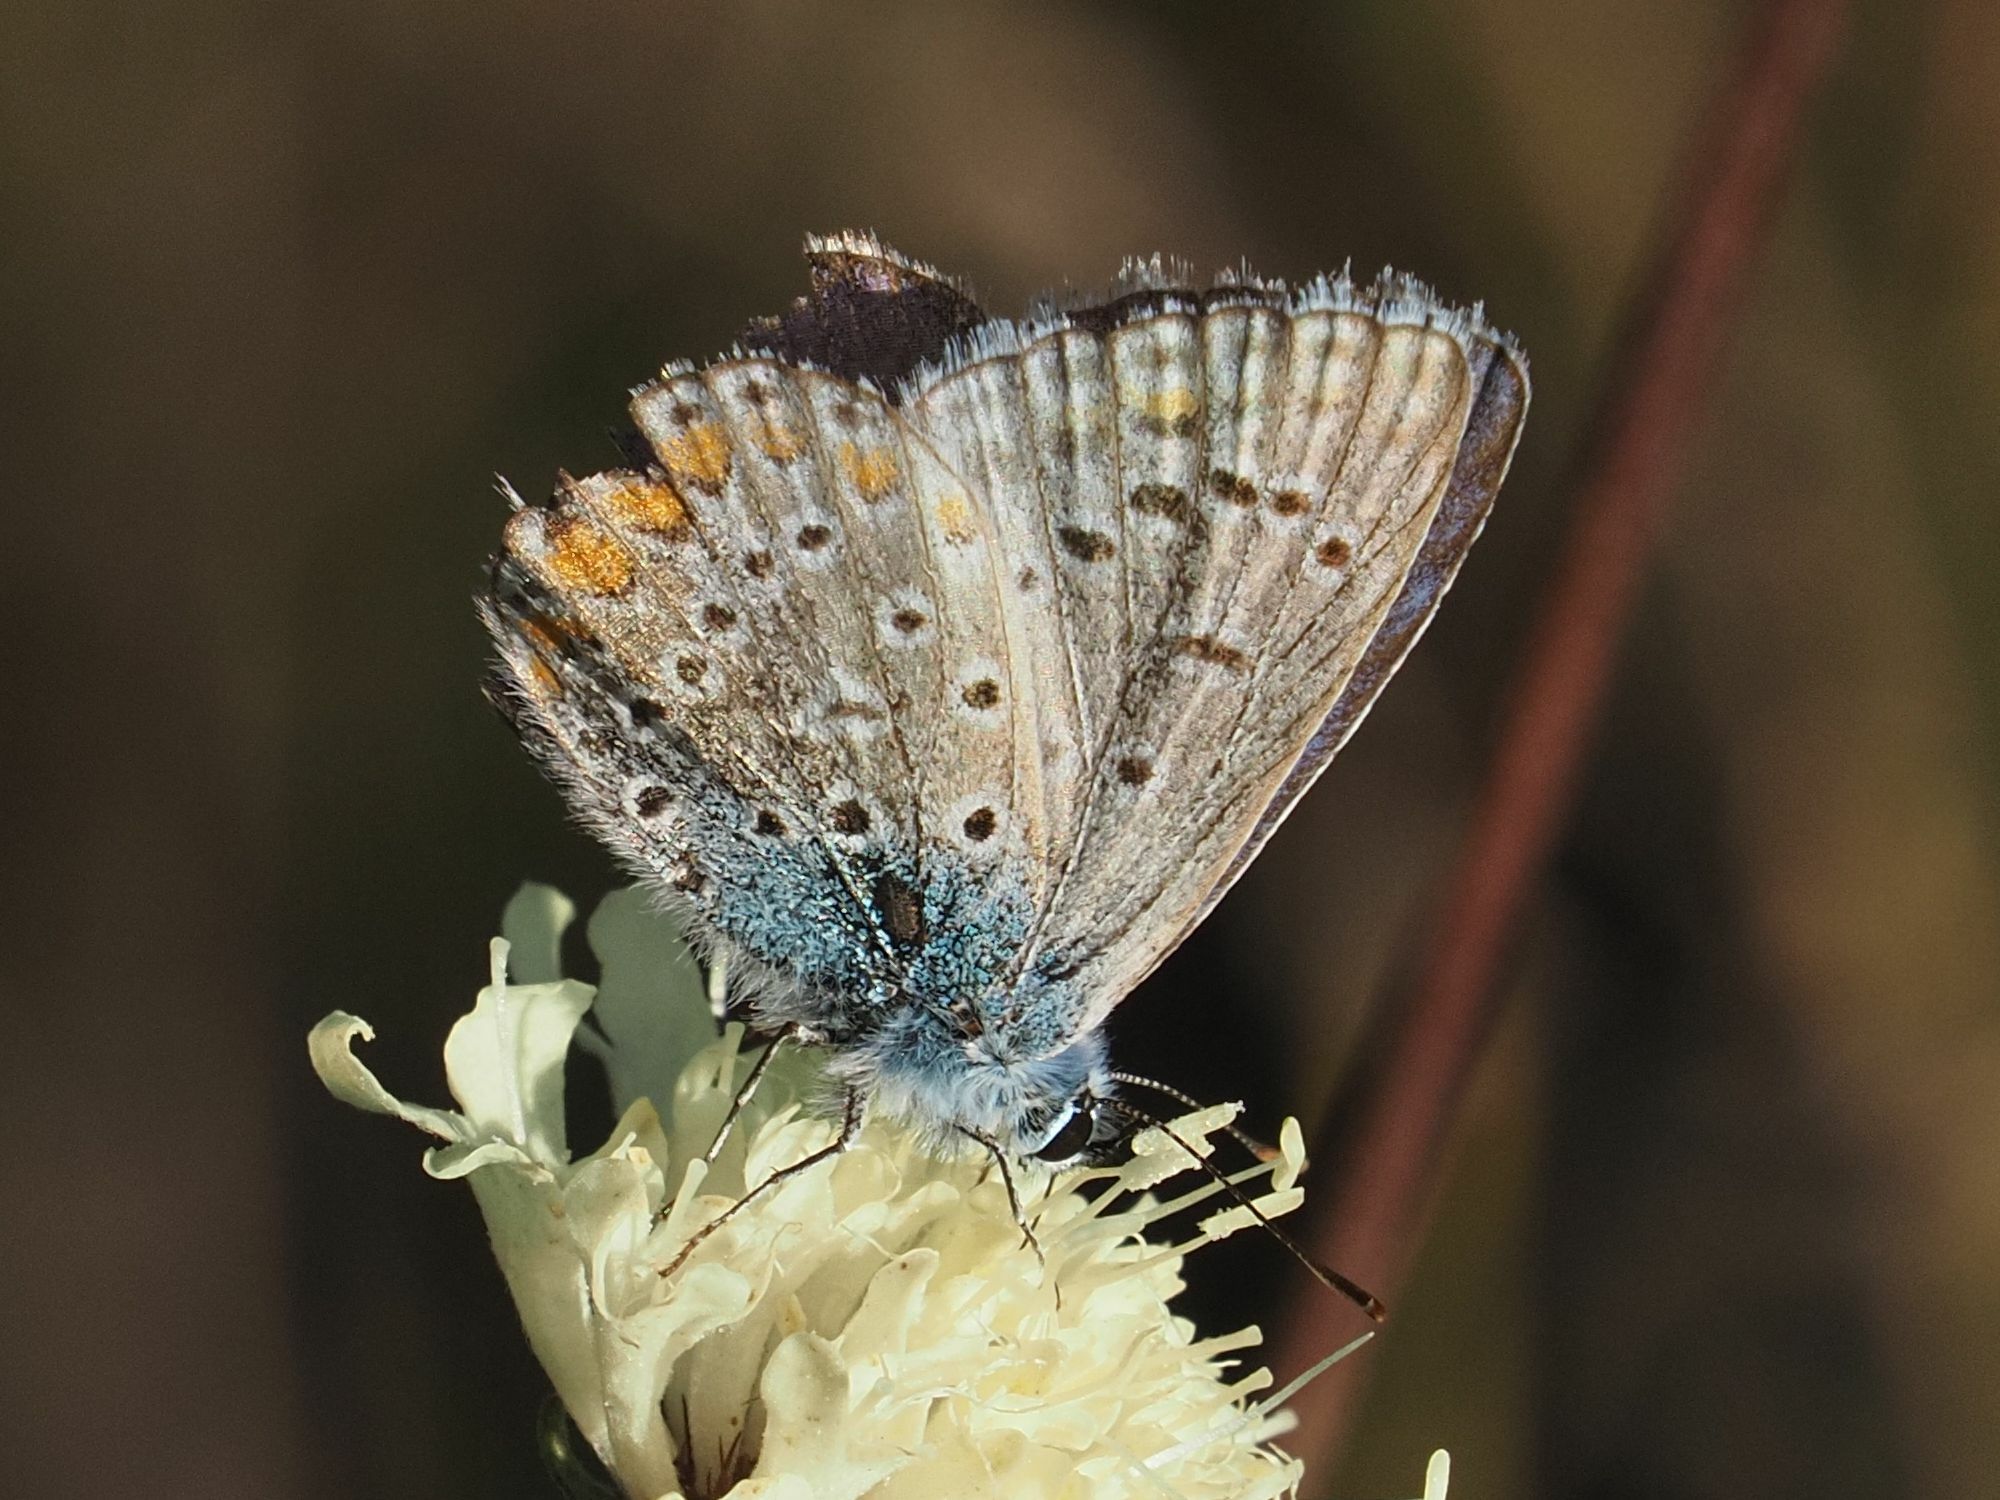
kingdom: Animalia
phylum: Arthropoda
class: Insecta
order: Lepidoptera
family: Lycaenidae
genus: Polyommatus
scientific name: Polyommatus icarus
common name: Common blue
